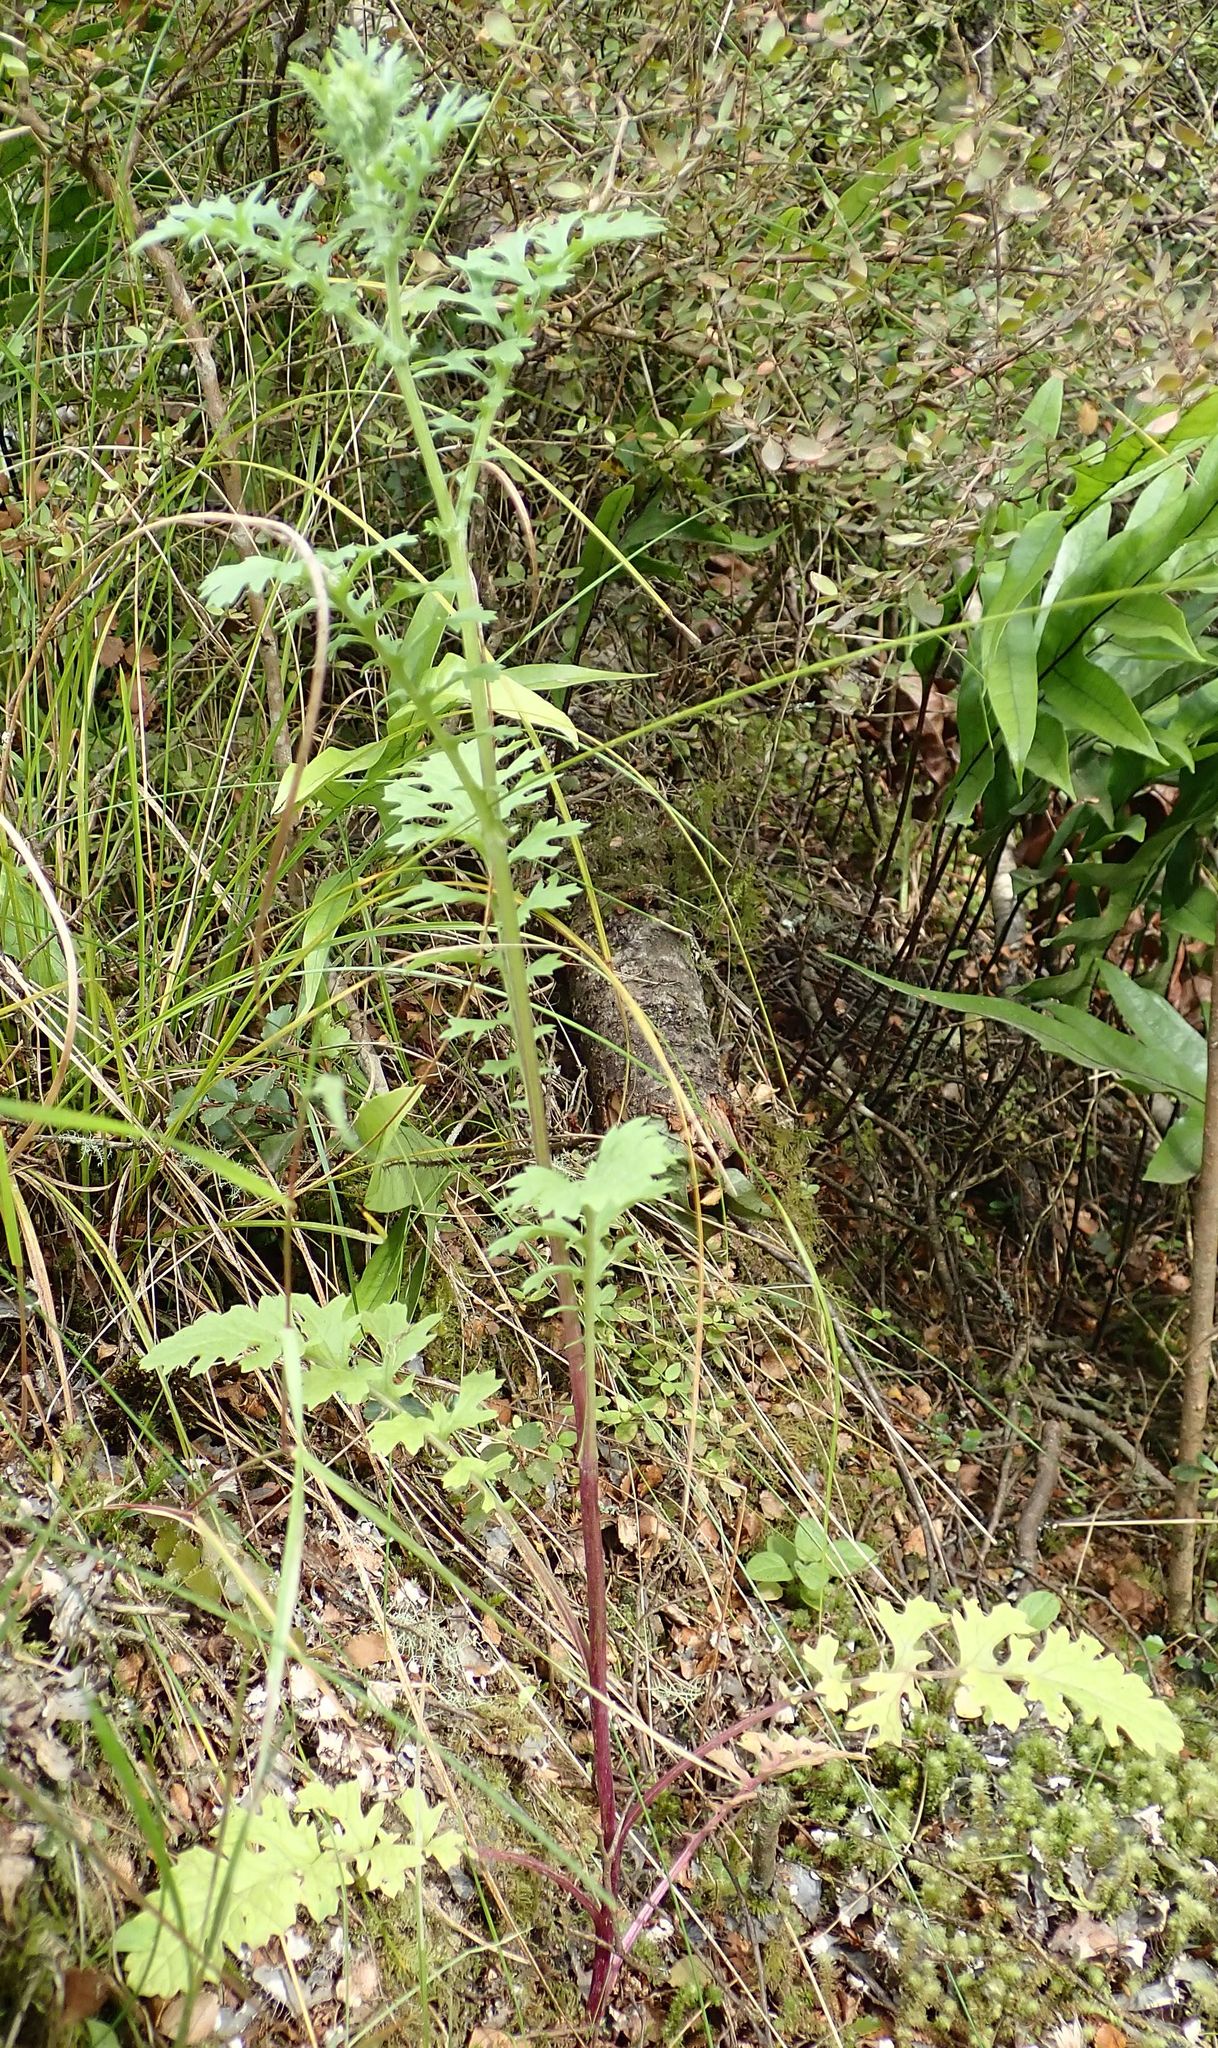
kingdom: Plantae
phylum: Tracheophyta
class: Magnoliopsida
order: Asterales
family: Asteraceae
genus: Jacobaea
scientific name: Jacobaea vulgaris
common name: Stinking willie
